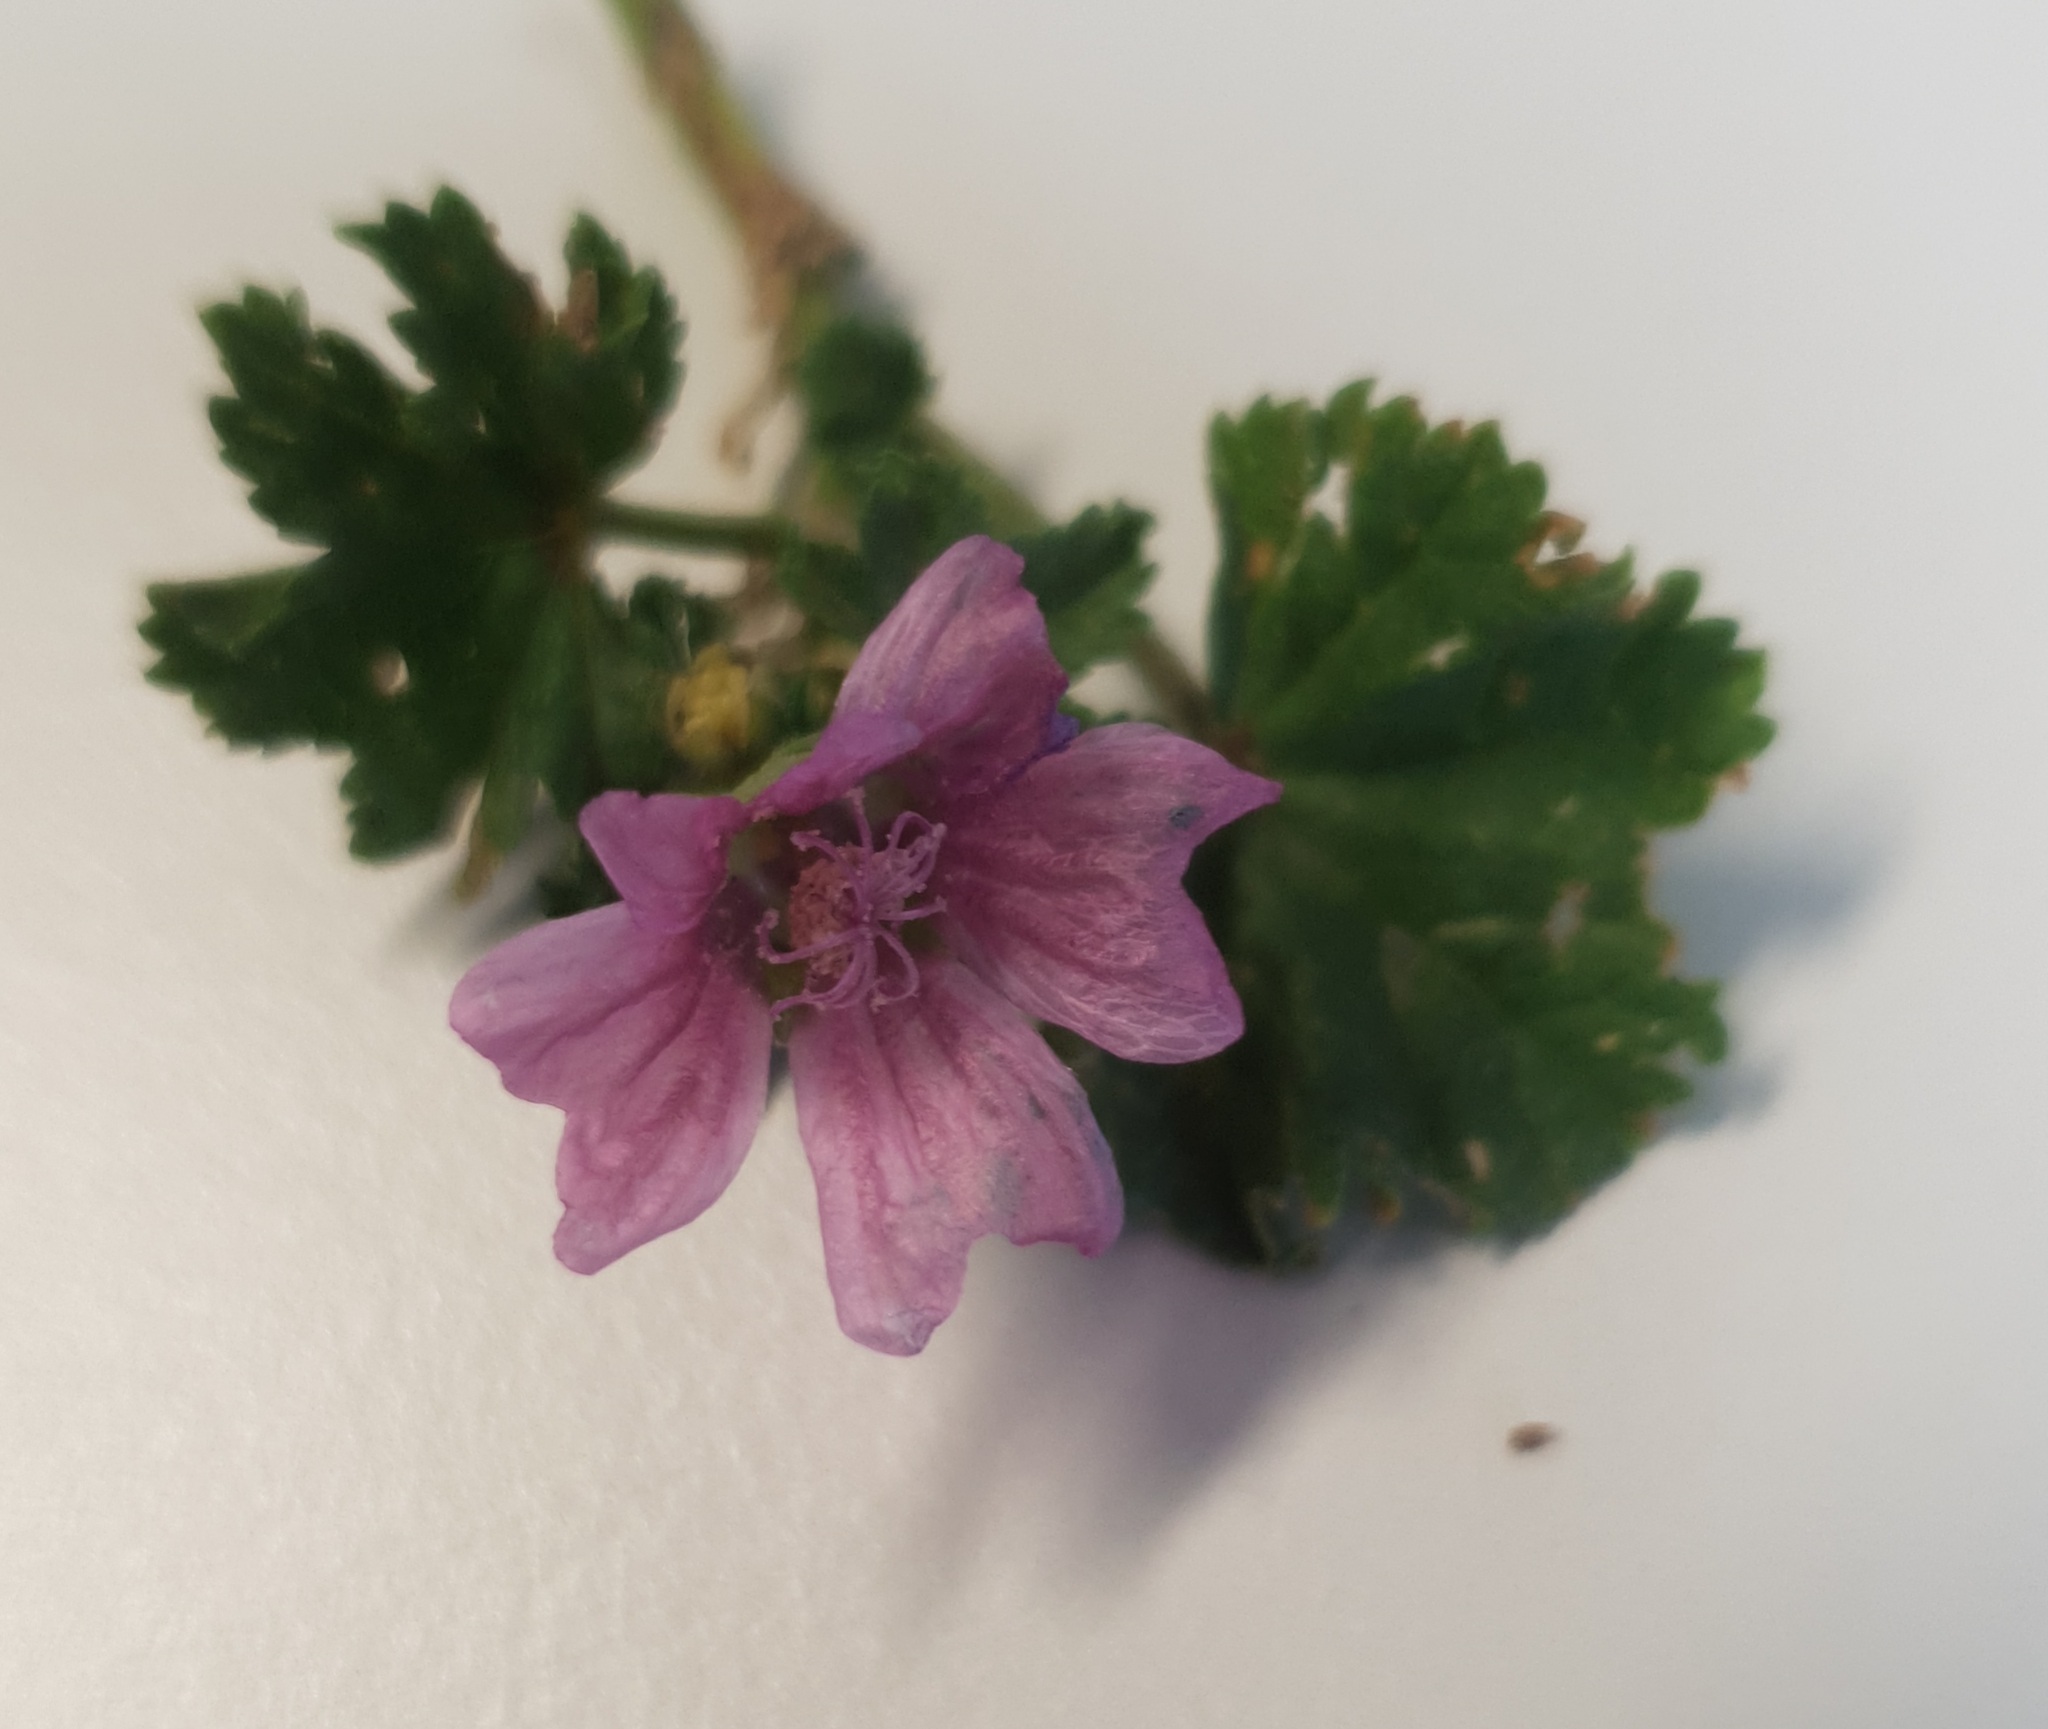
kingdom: Plantae
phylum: Tracheophyta
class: Magnoliopsida
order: Malvales
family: Malvaceae
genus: Malva
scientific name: Malva neglecta
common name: Common mallow
